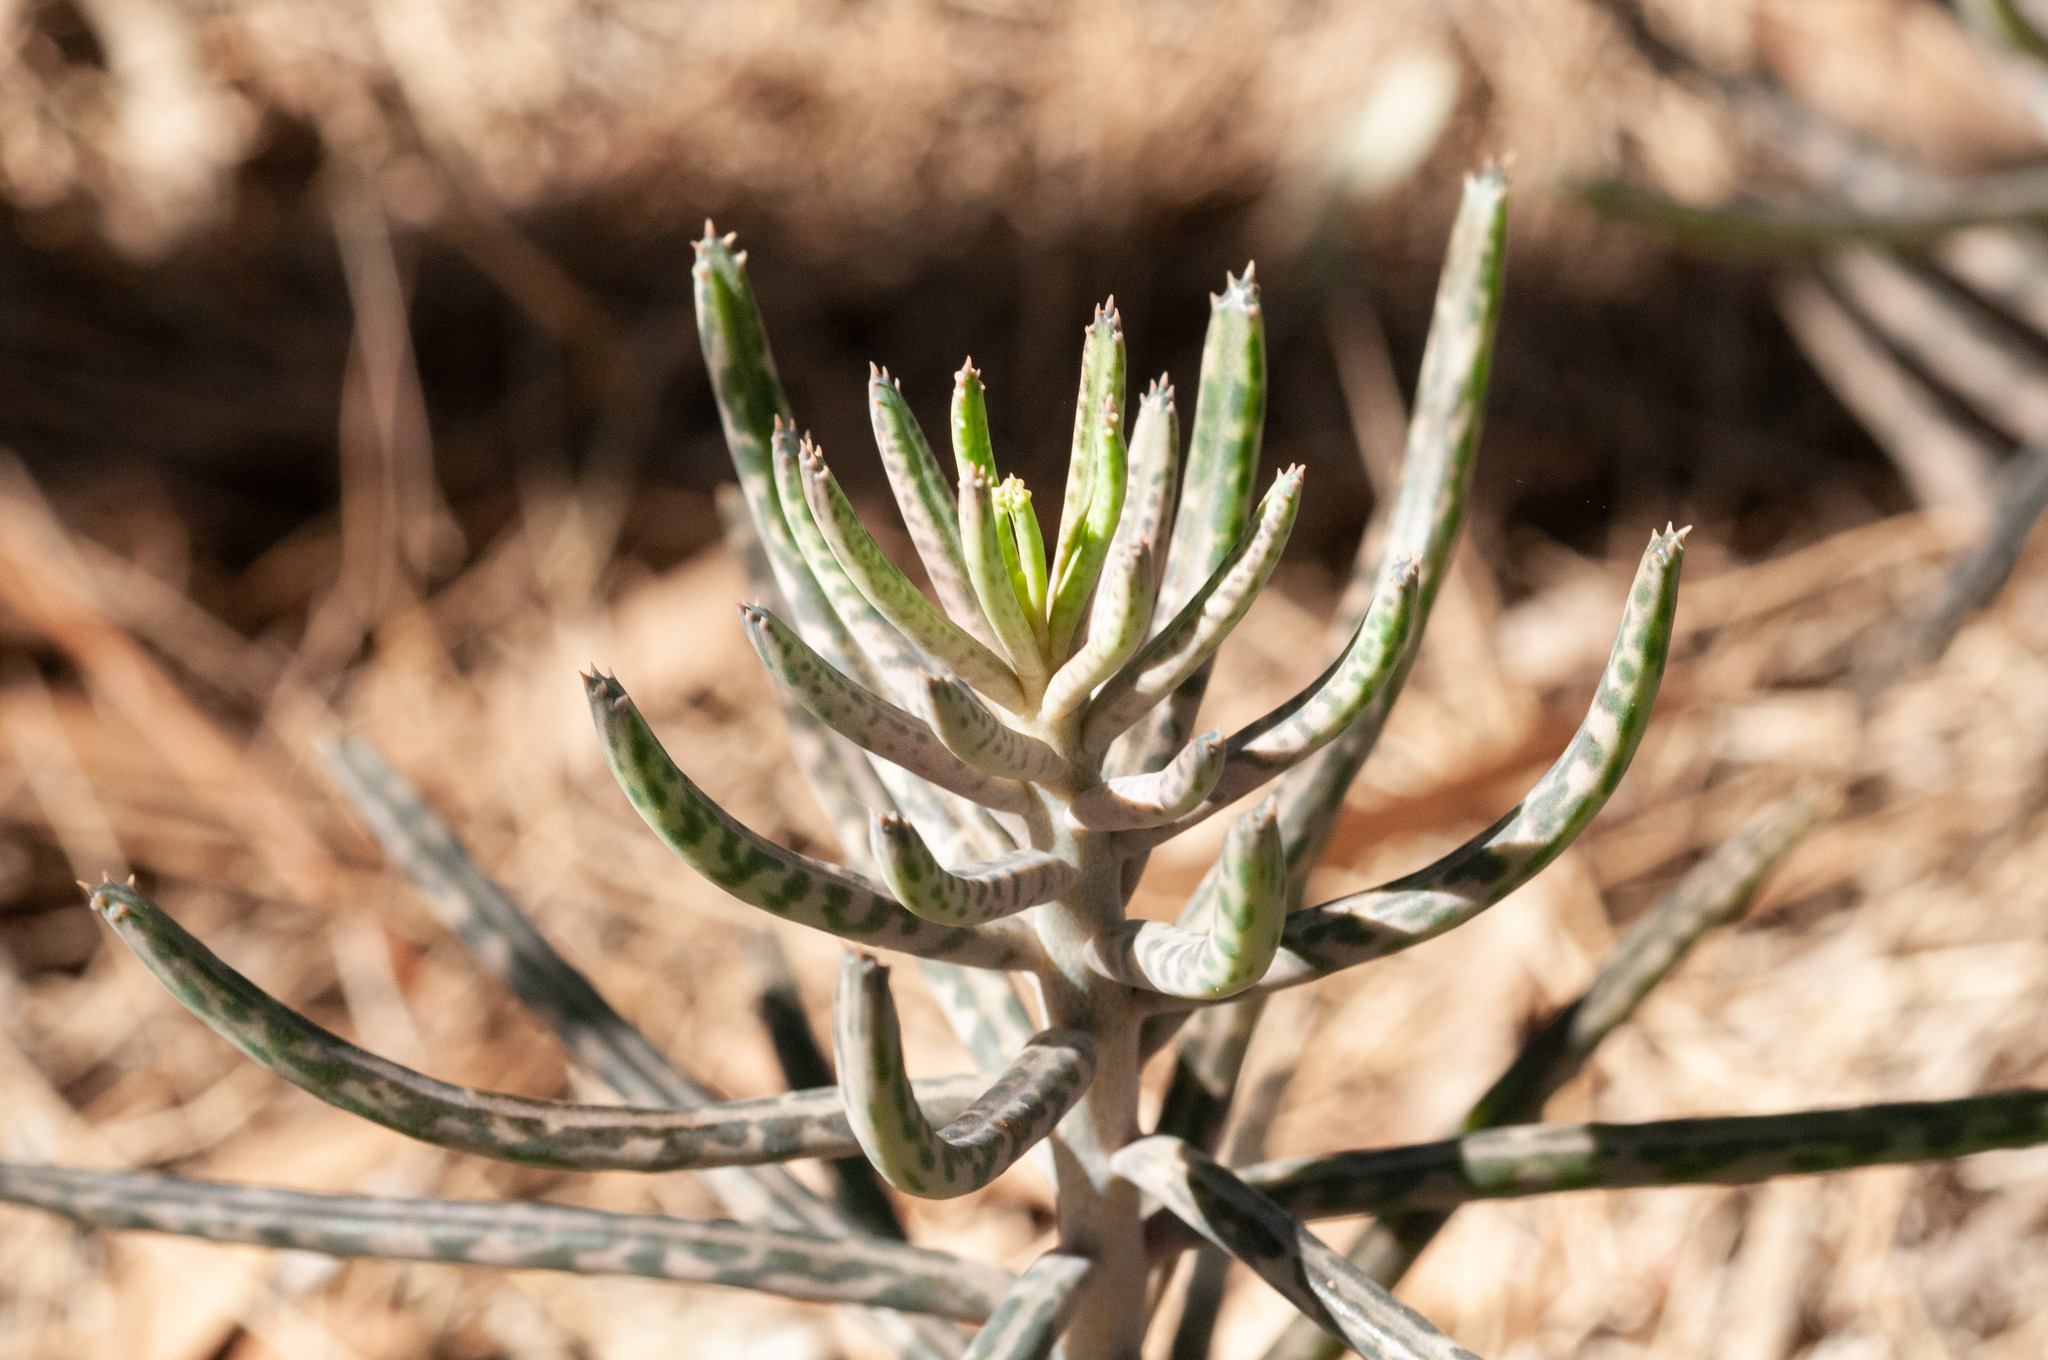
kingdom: Plantae
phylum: Tracheophyta
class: Magnoliopsida
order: Saxifragales
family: Crassulaceae
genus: Kalanchoe
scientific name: Kalanchoe delagoensis
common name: Chandelier plant
